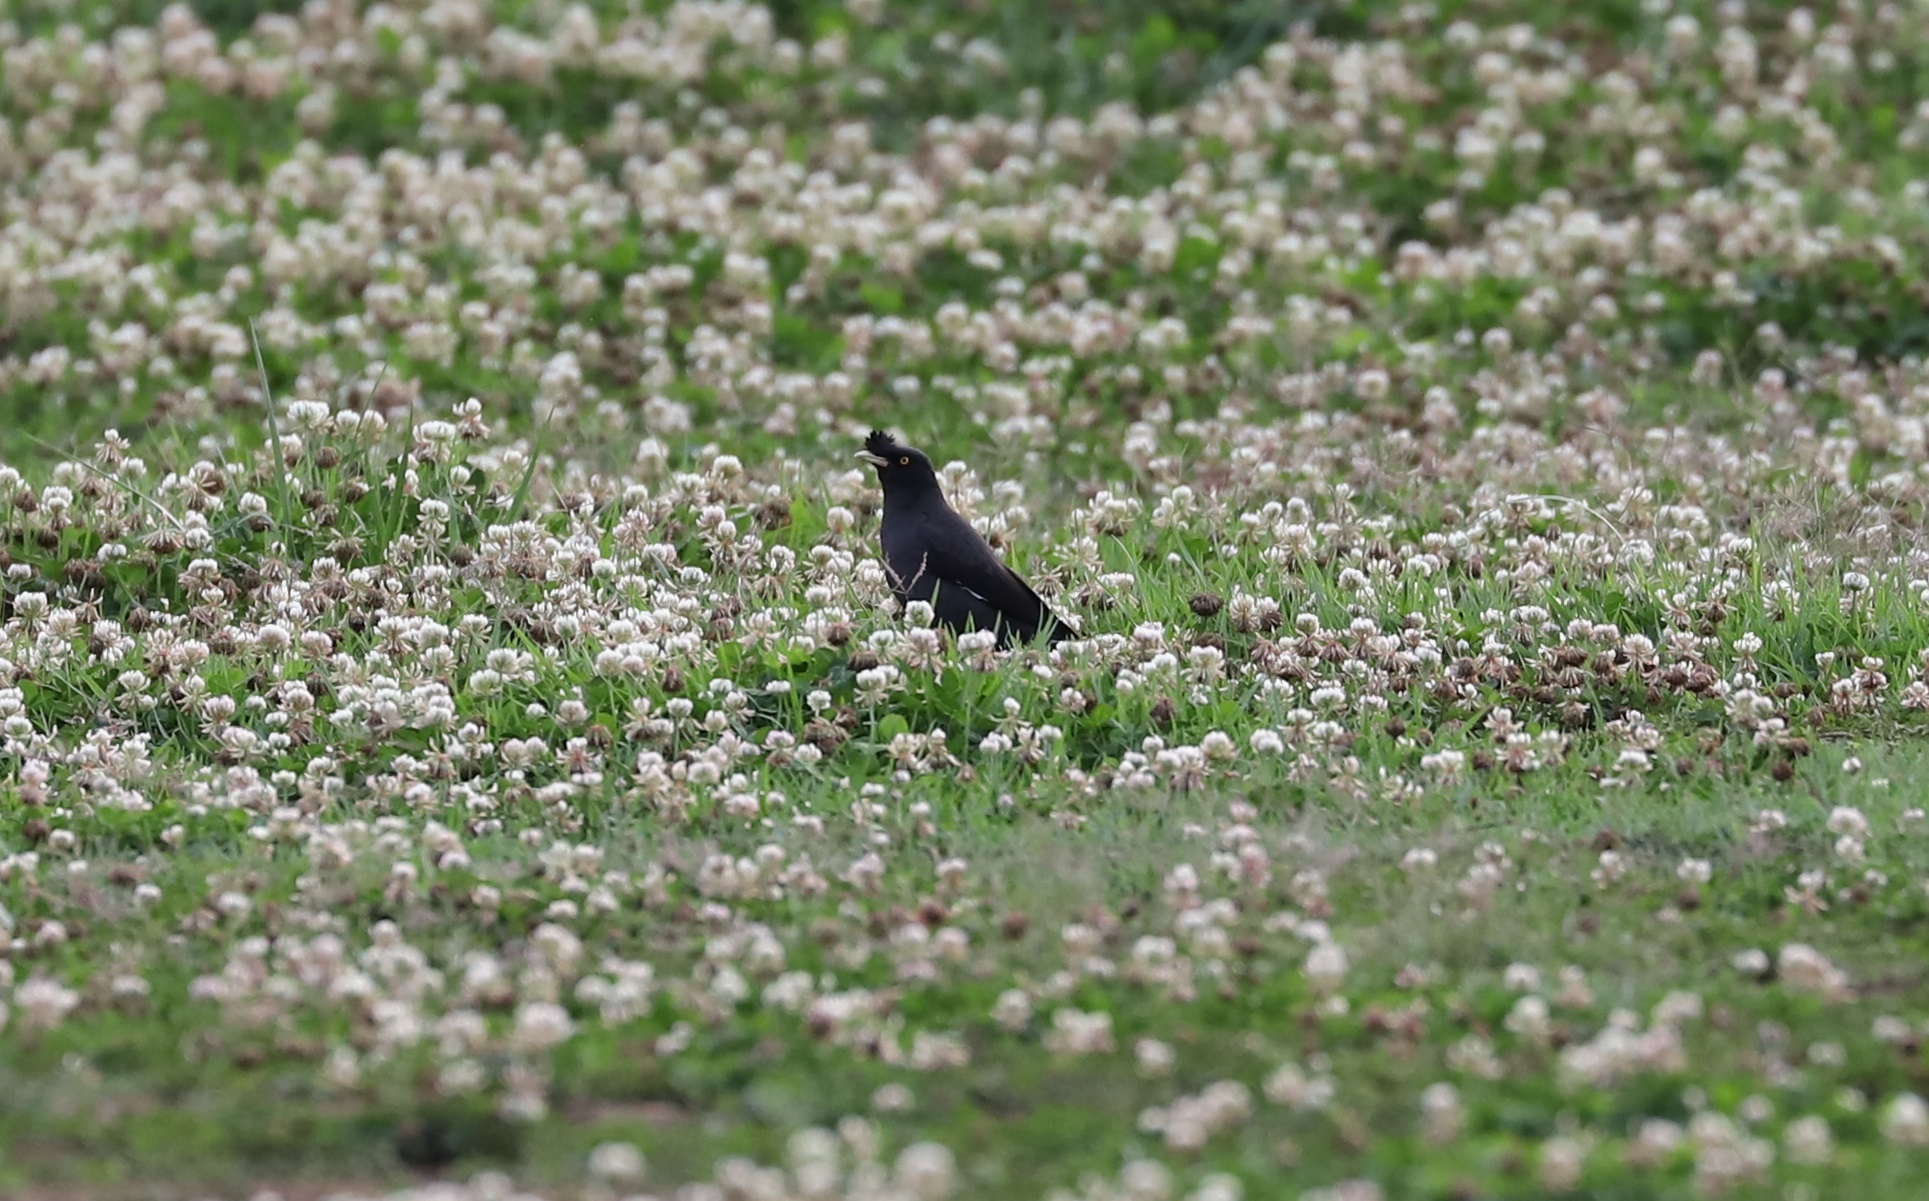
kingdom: Animalia
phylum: Chordata
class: Aves
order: Passeriformes
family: Sturnidae
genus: Acridotheres
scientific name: Acridotheres cristatellus
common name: Crested myna
